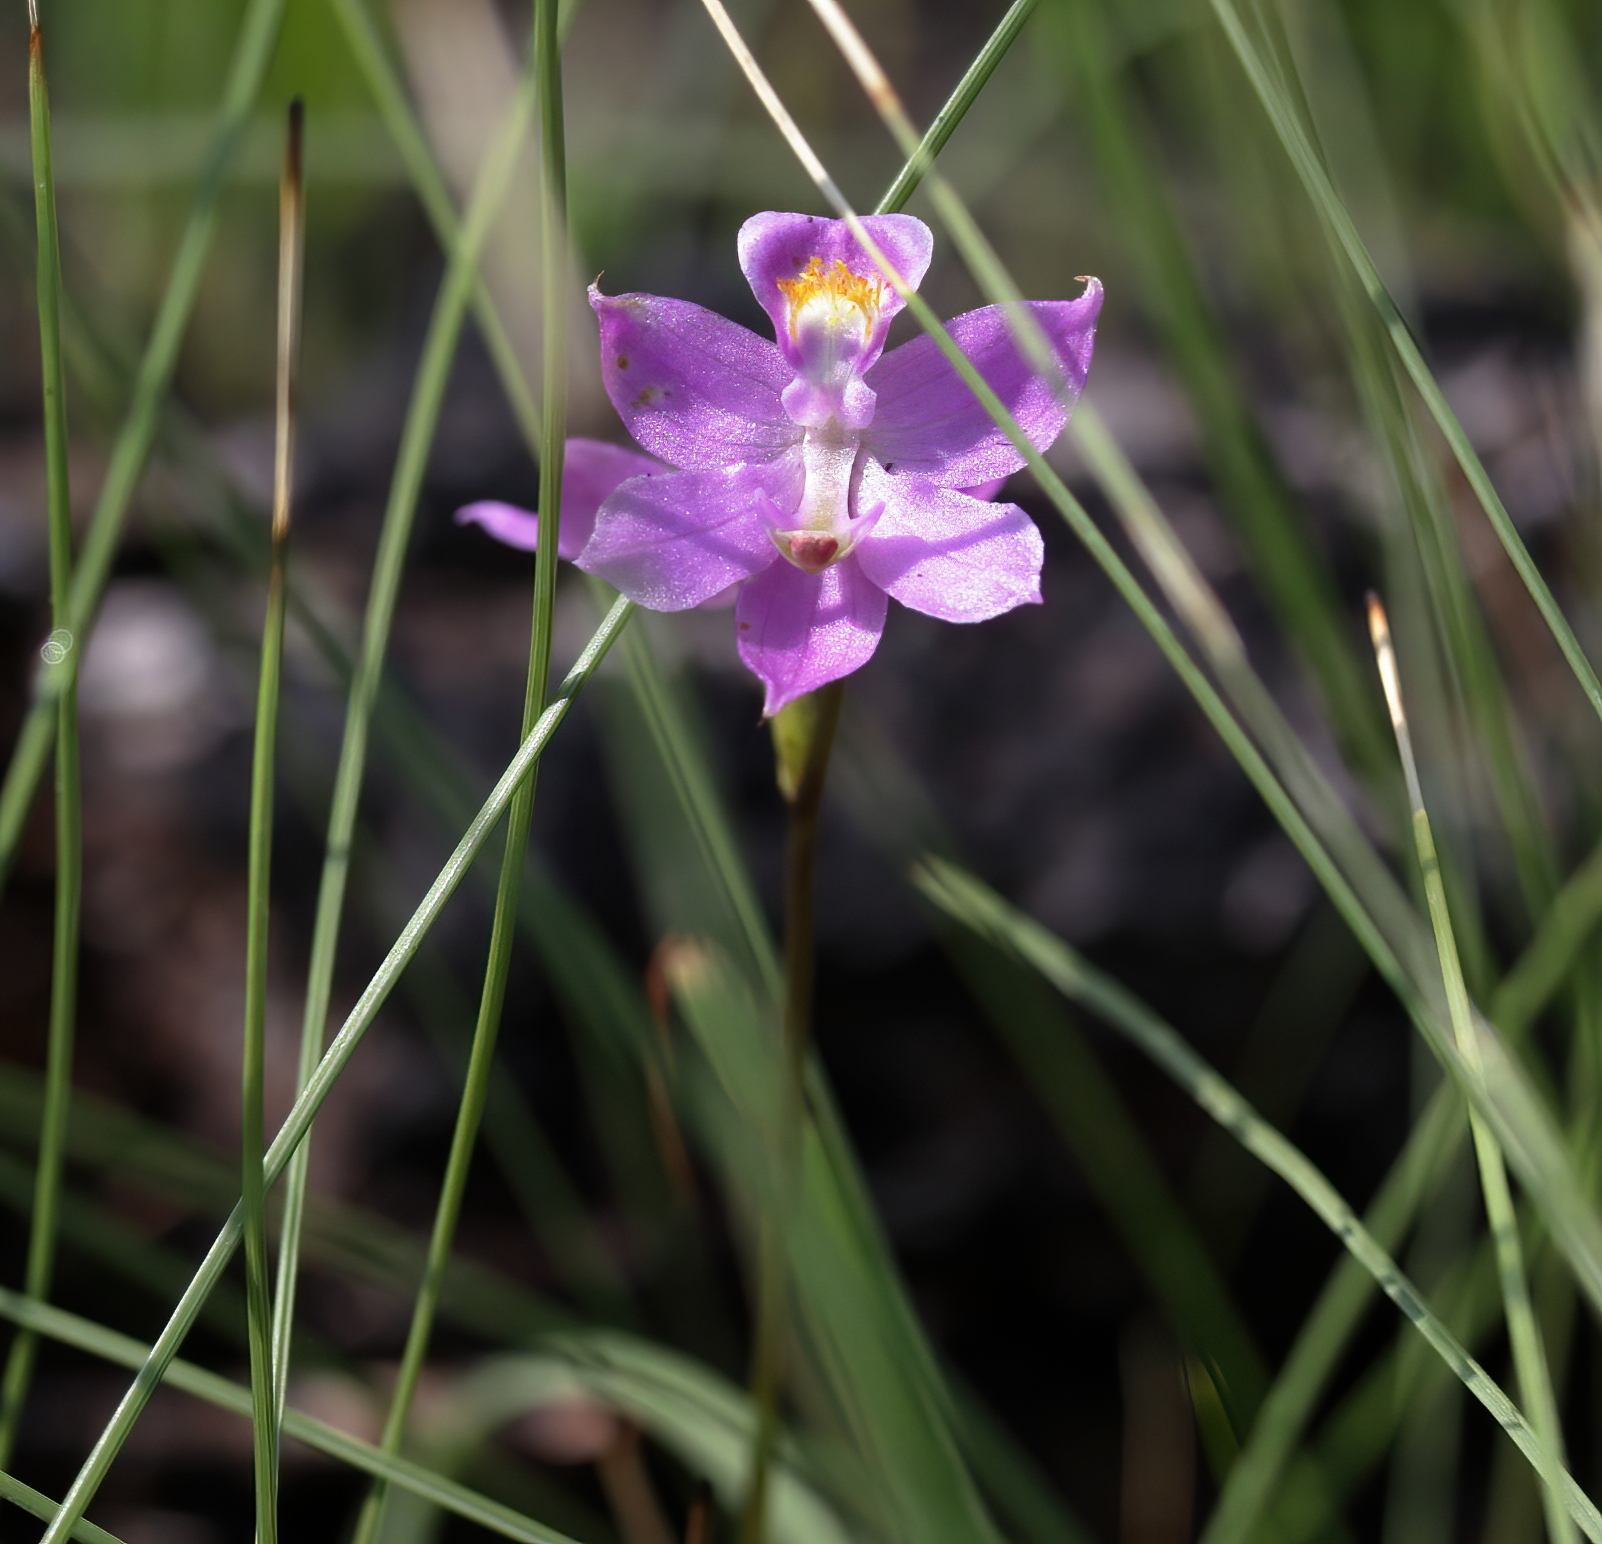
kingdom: Plantae
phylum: Tracheophyta
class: Liliopsida
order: Asparagales
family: Orchidaceae
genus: Calopogon
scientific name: Calopogon multiflorus
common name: Many-flowered grass-pink orchid
